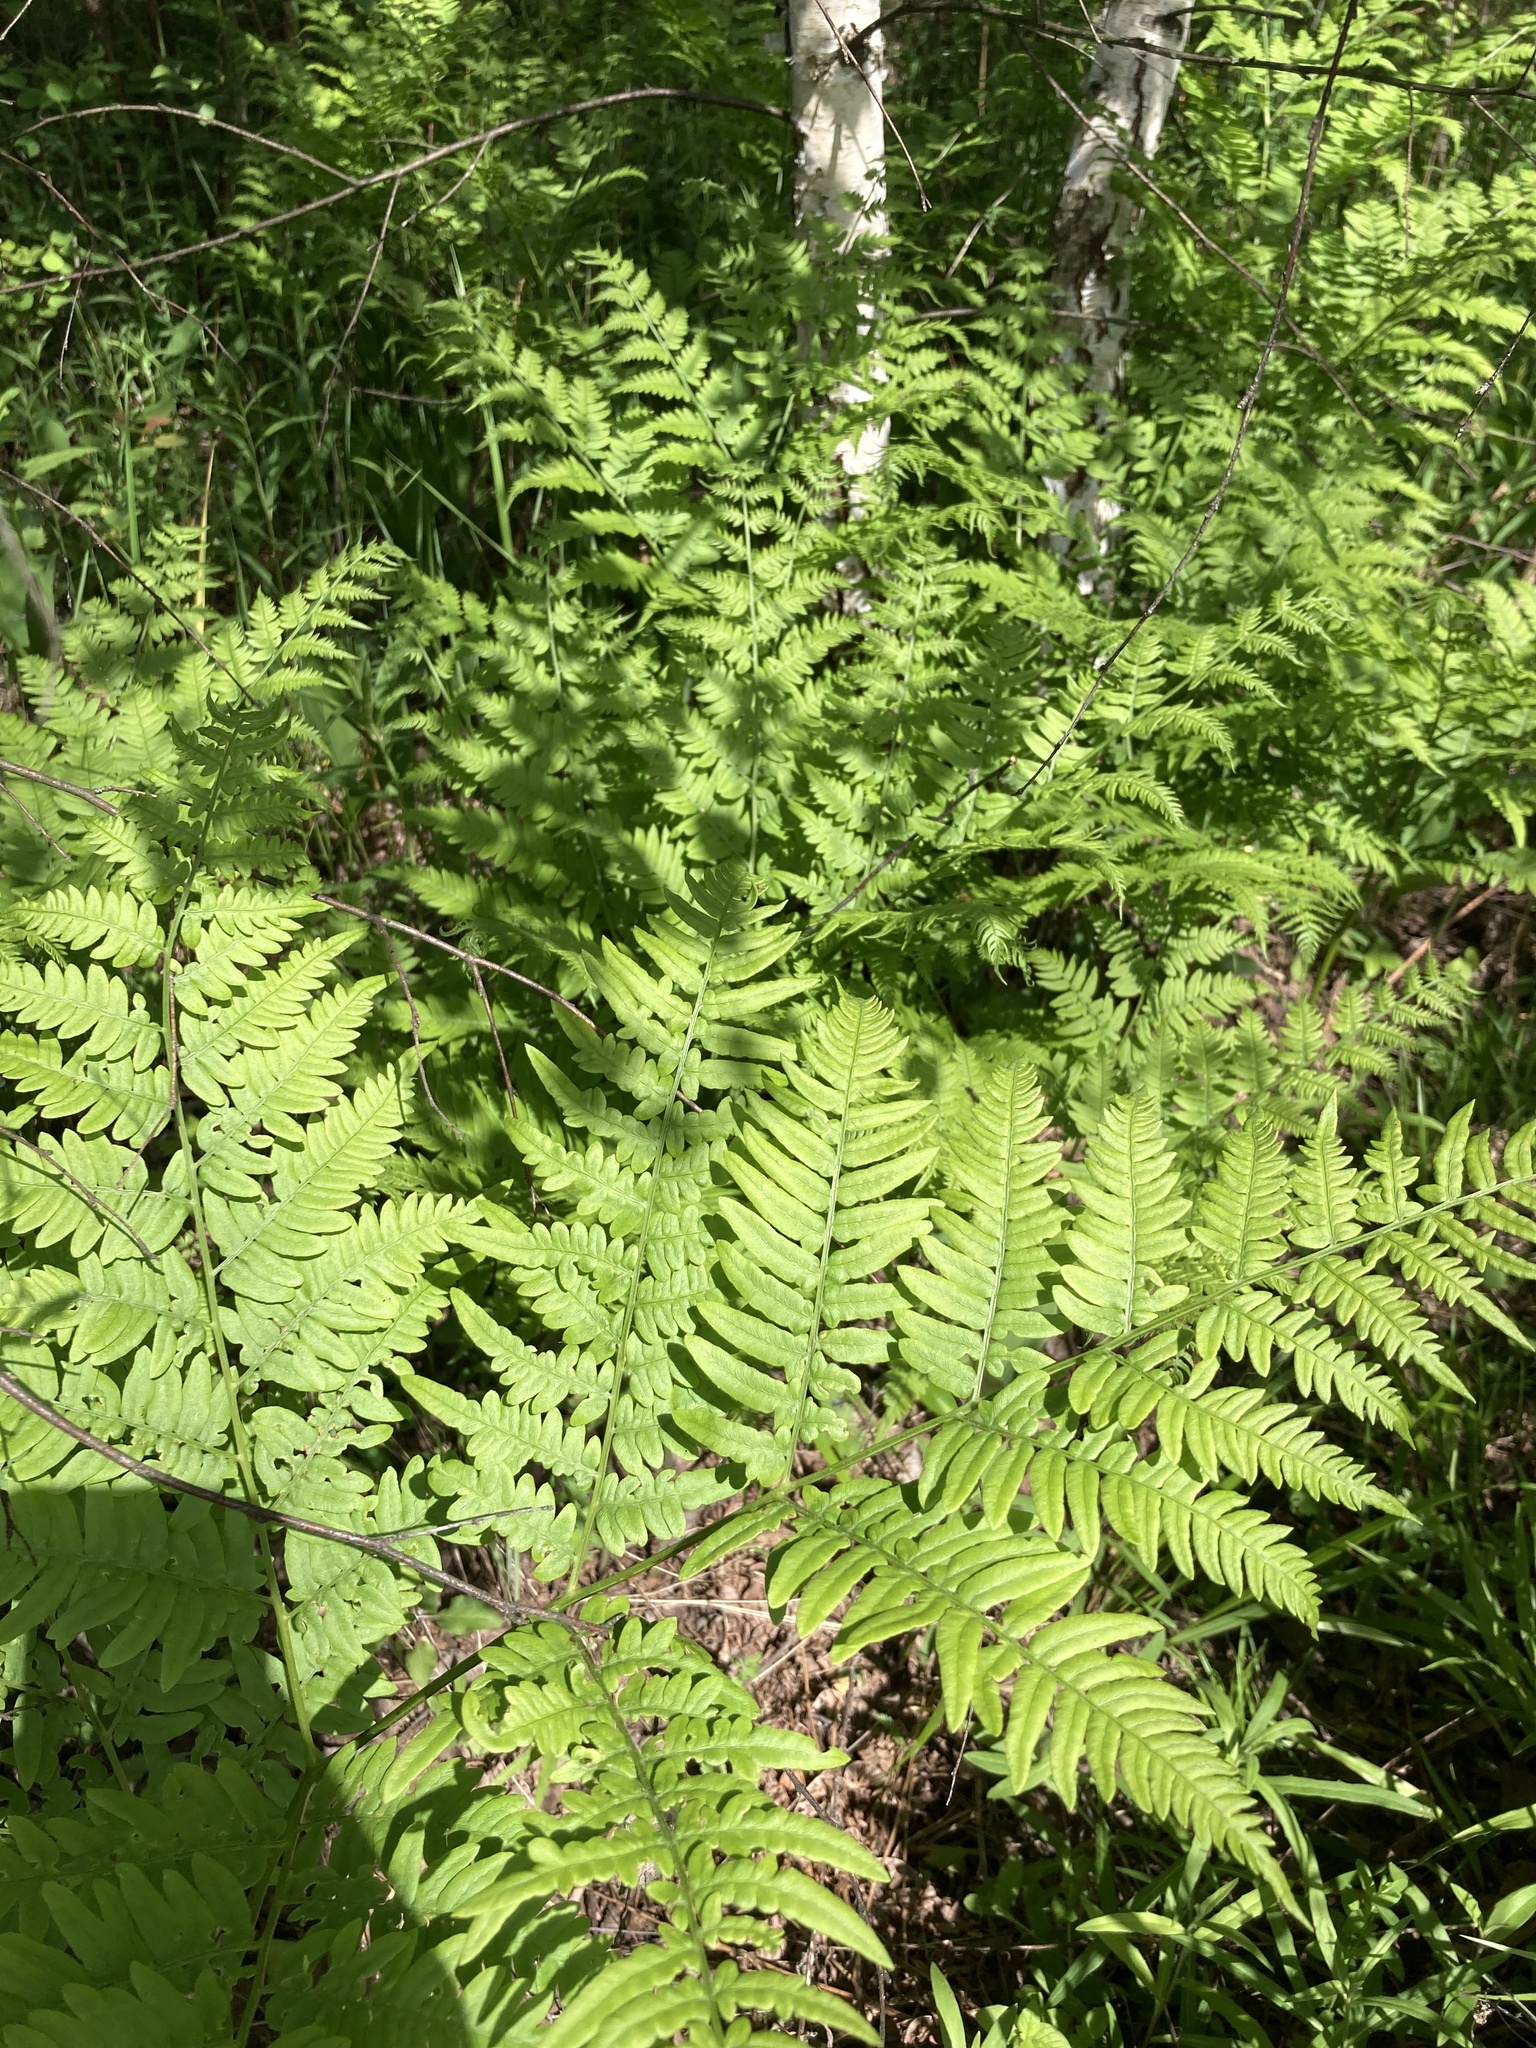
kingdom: Plantae
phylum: Tracheophyta
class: Polypodiopsida
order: Polypodiales
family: Dennstaedtiaceae
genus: Pteridium
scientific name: Pteridium aquilinum
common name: Bracken
